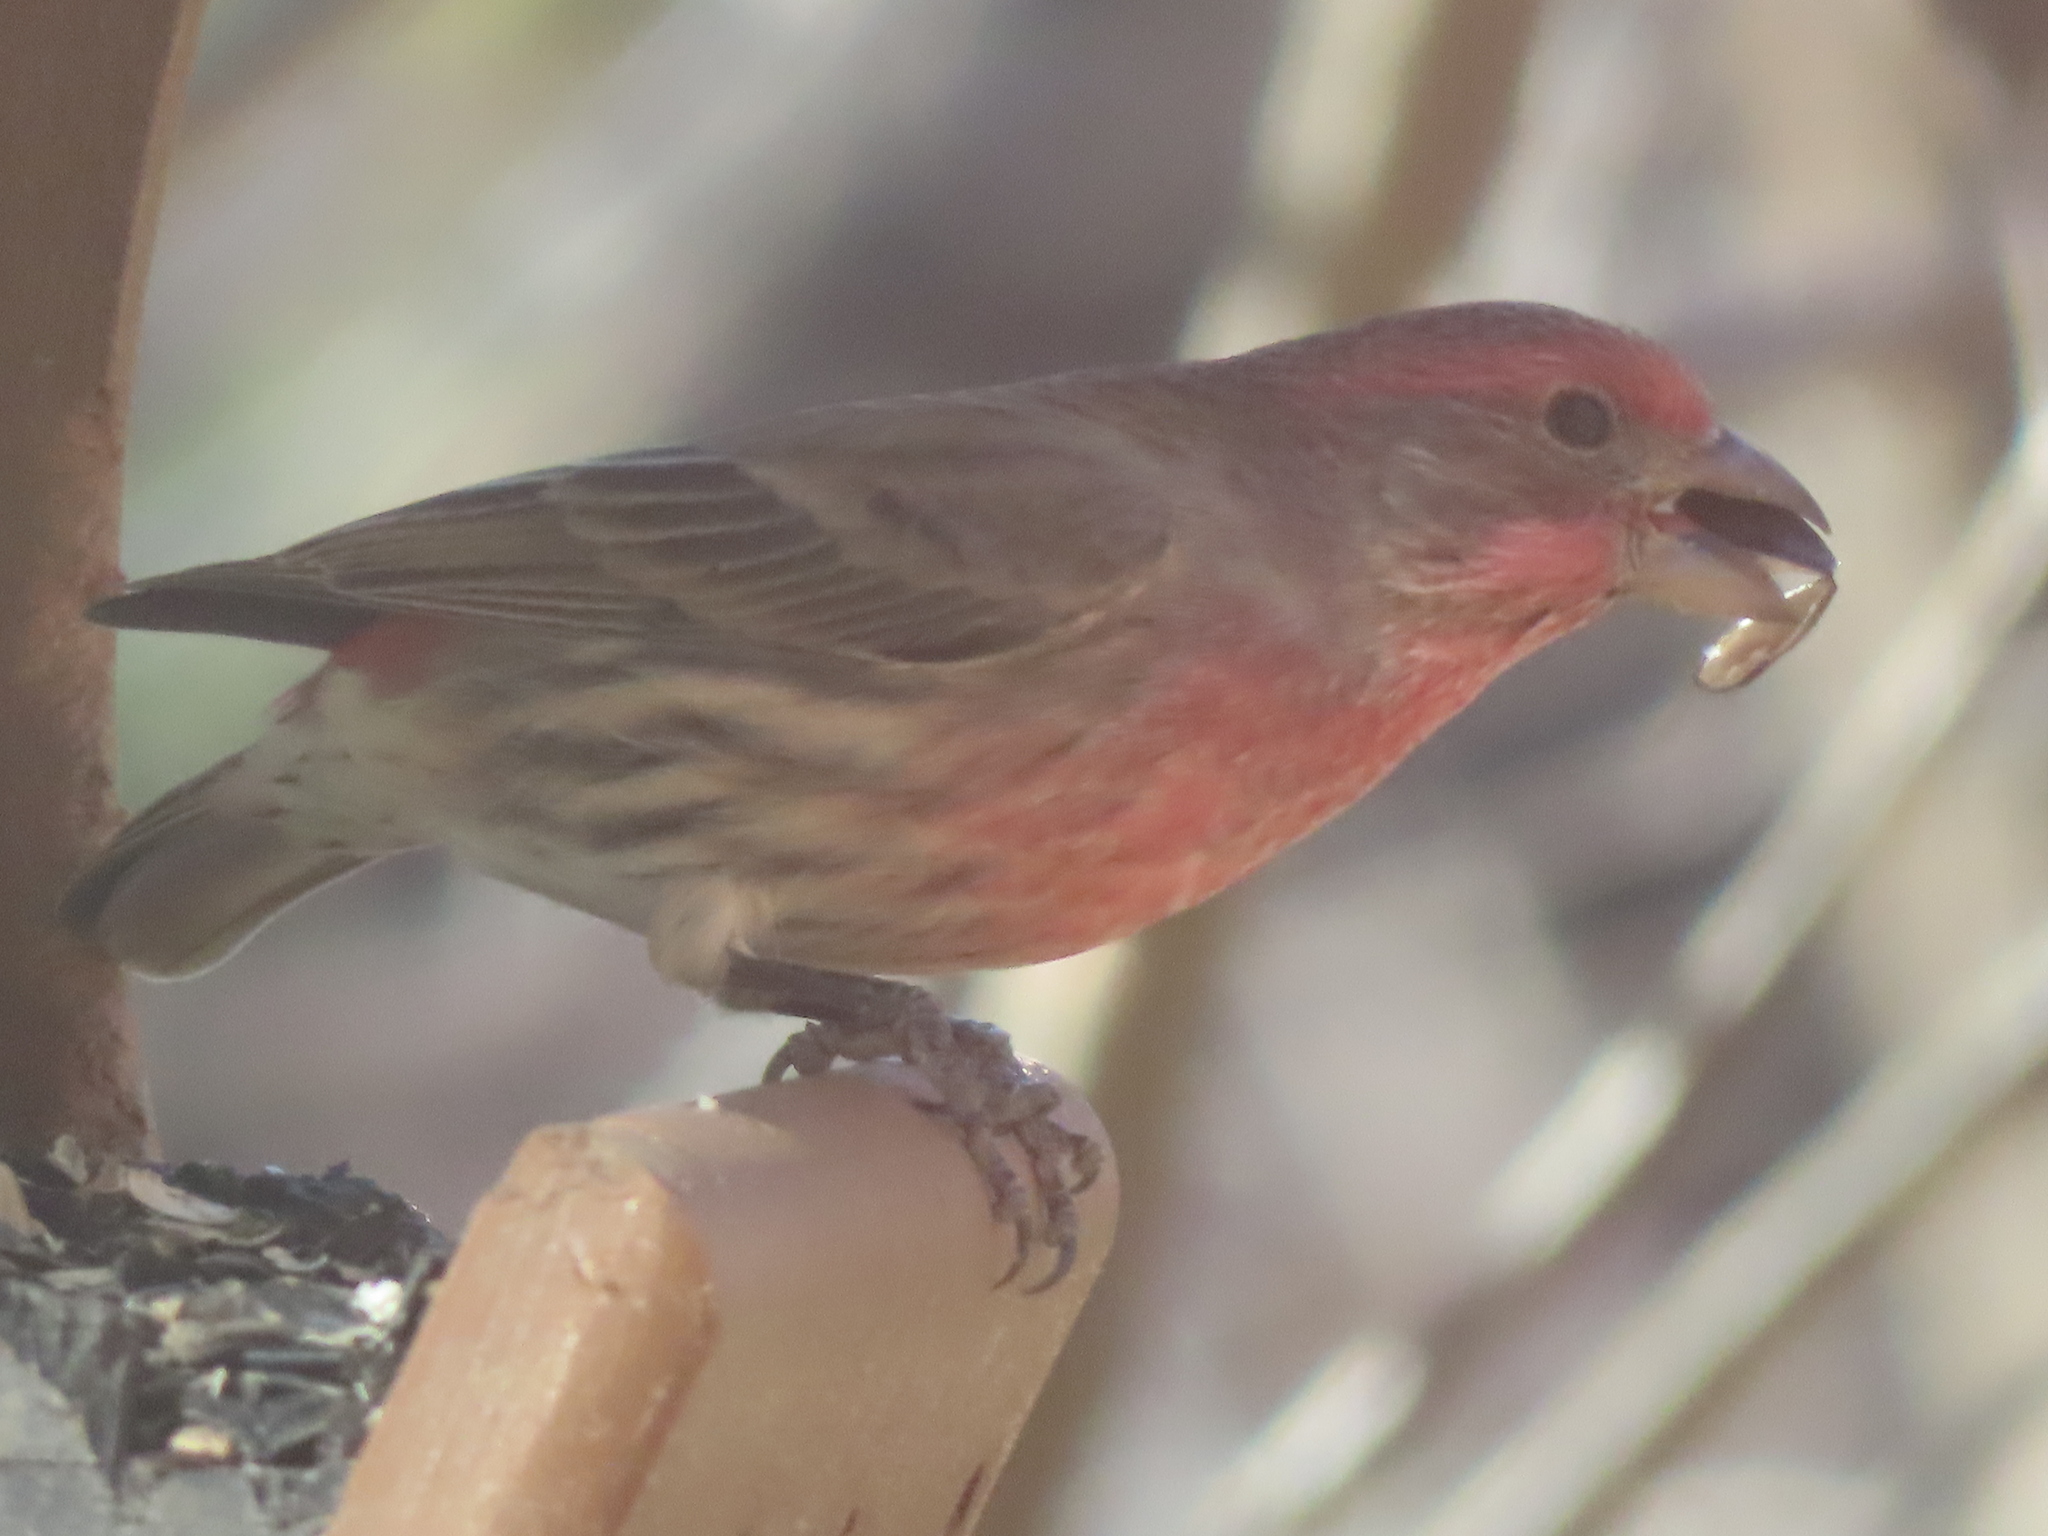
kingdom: Animalia
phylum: Chordata
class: Aves
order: Passeriformes
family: Fringillidae
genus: Haemorhous
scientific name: Haemorhous mexicanus
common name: House finch
